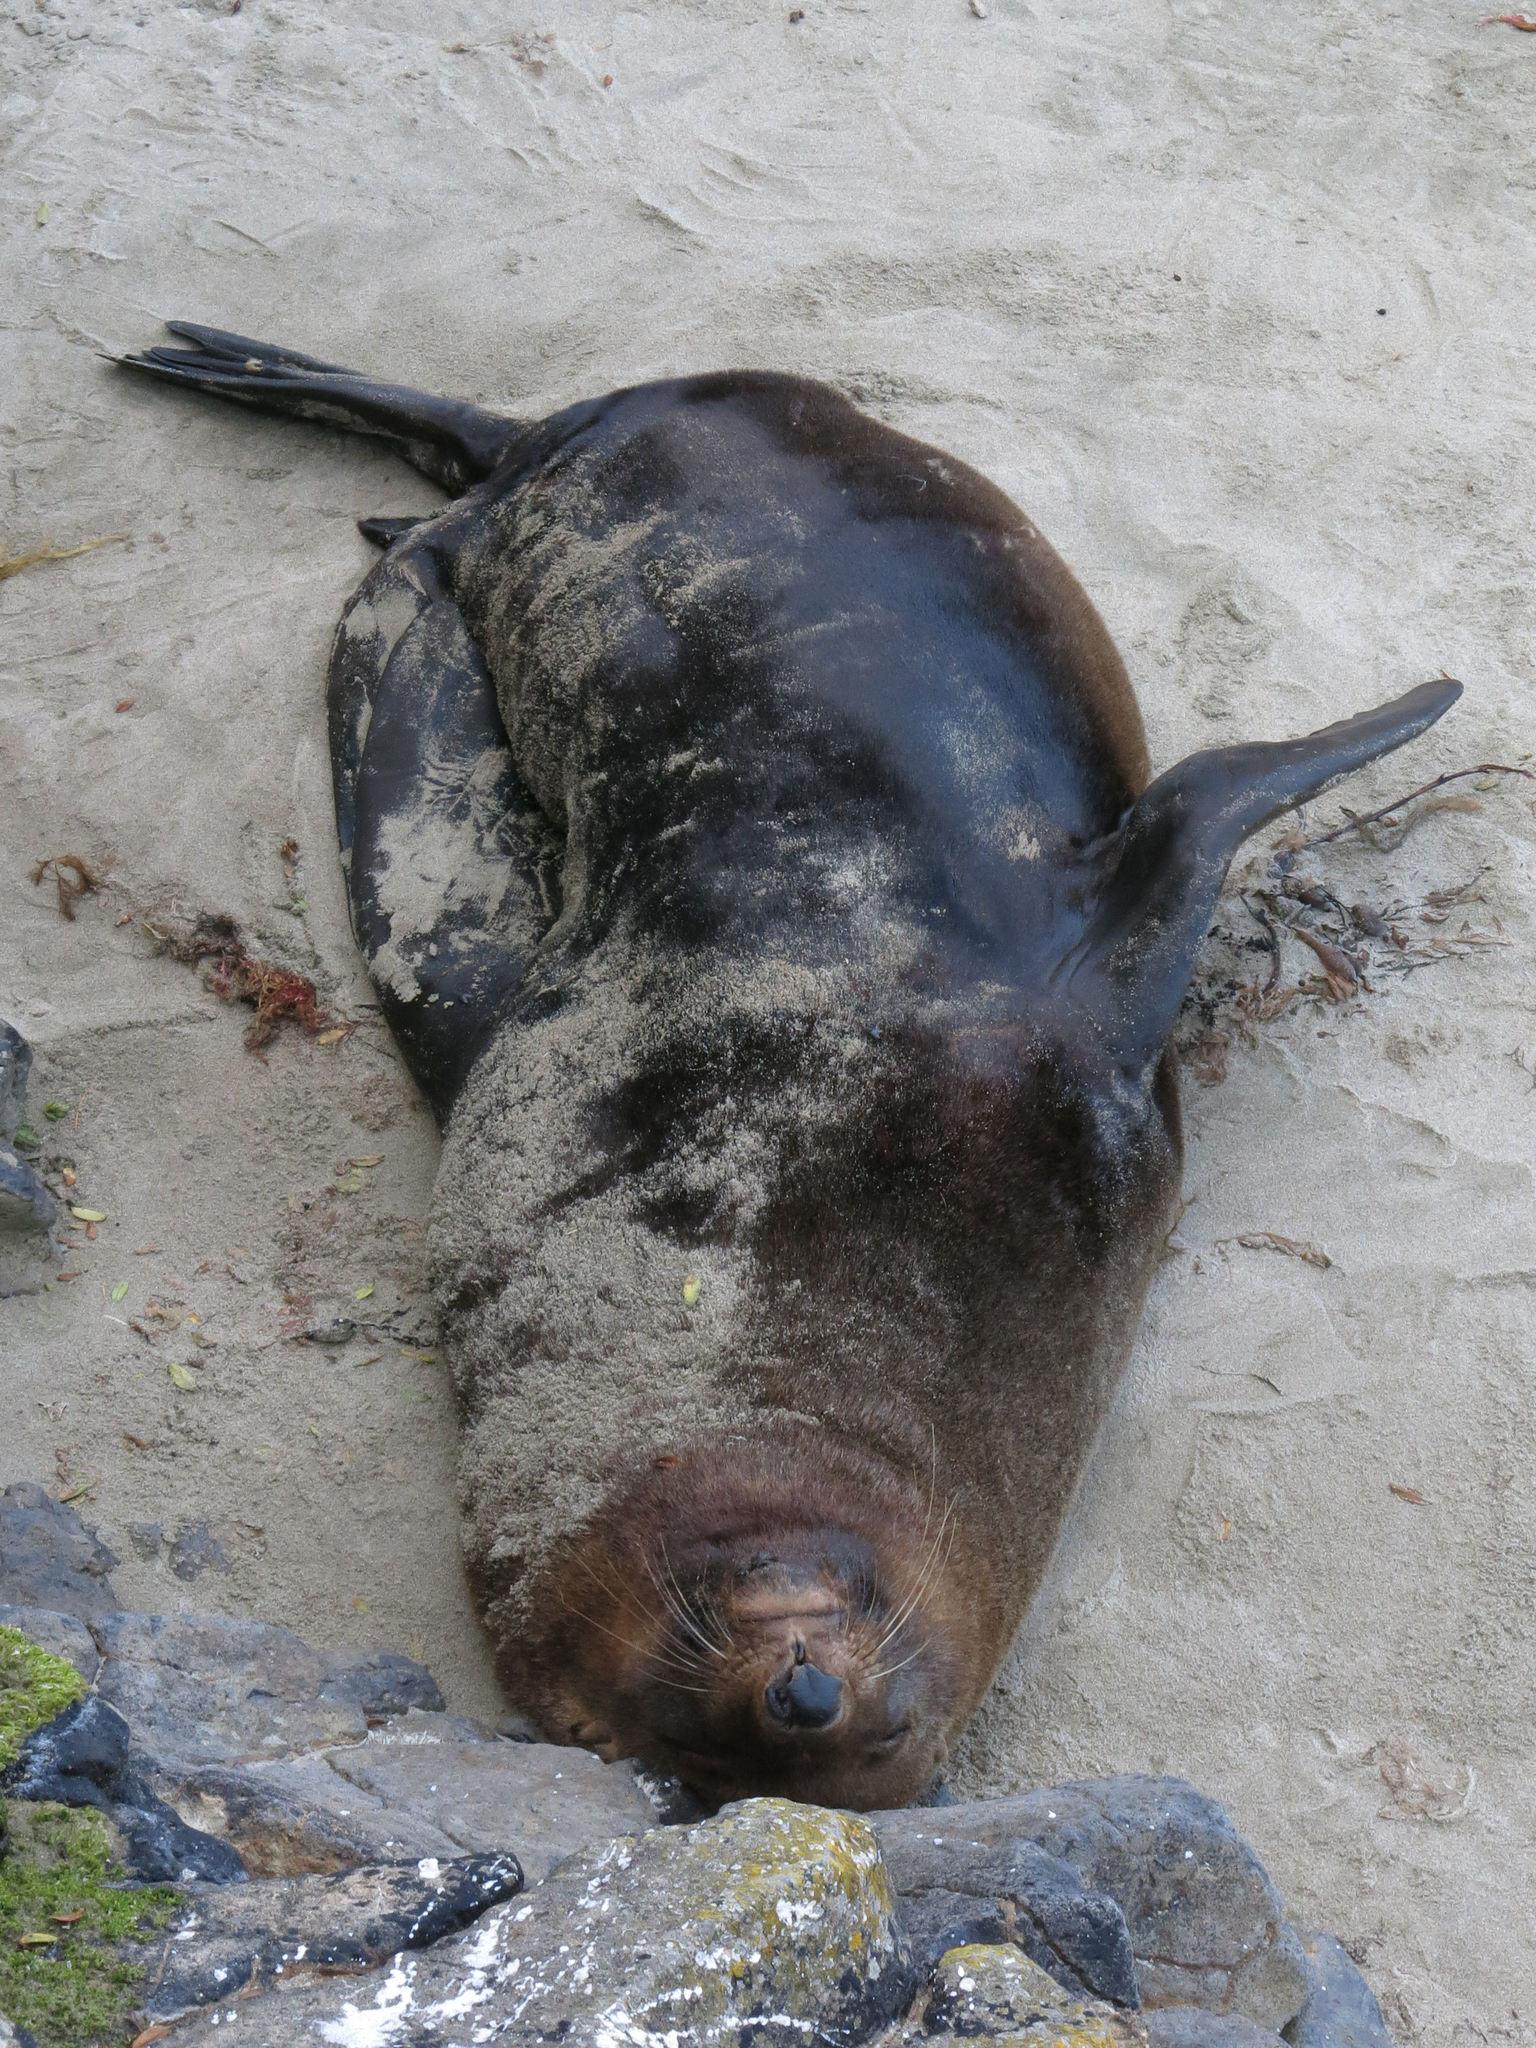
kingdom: Animalia
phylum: Chordata
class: Mammalia
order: Carnivora
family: Otariidae
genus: Arctocephalus
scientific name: Arctocephalus forsteri
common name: New zealand fur seal
